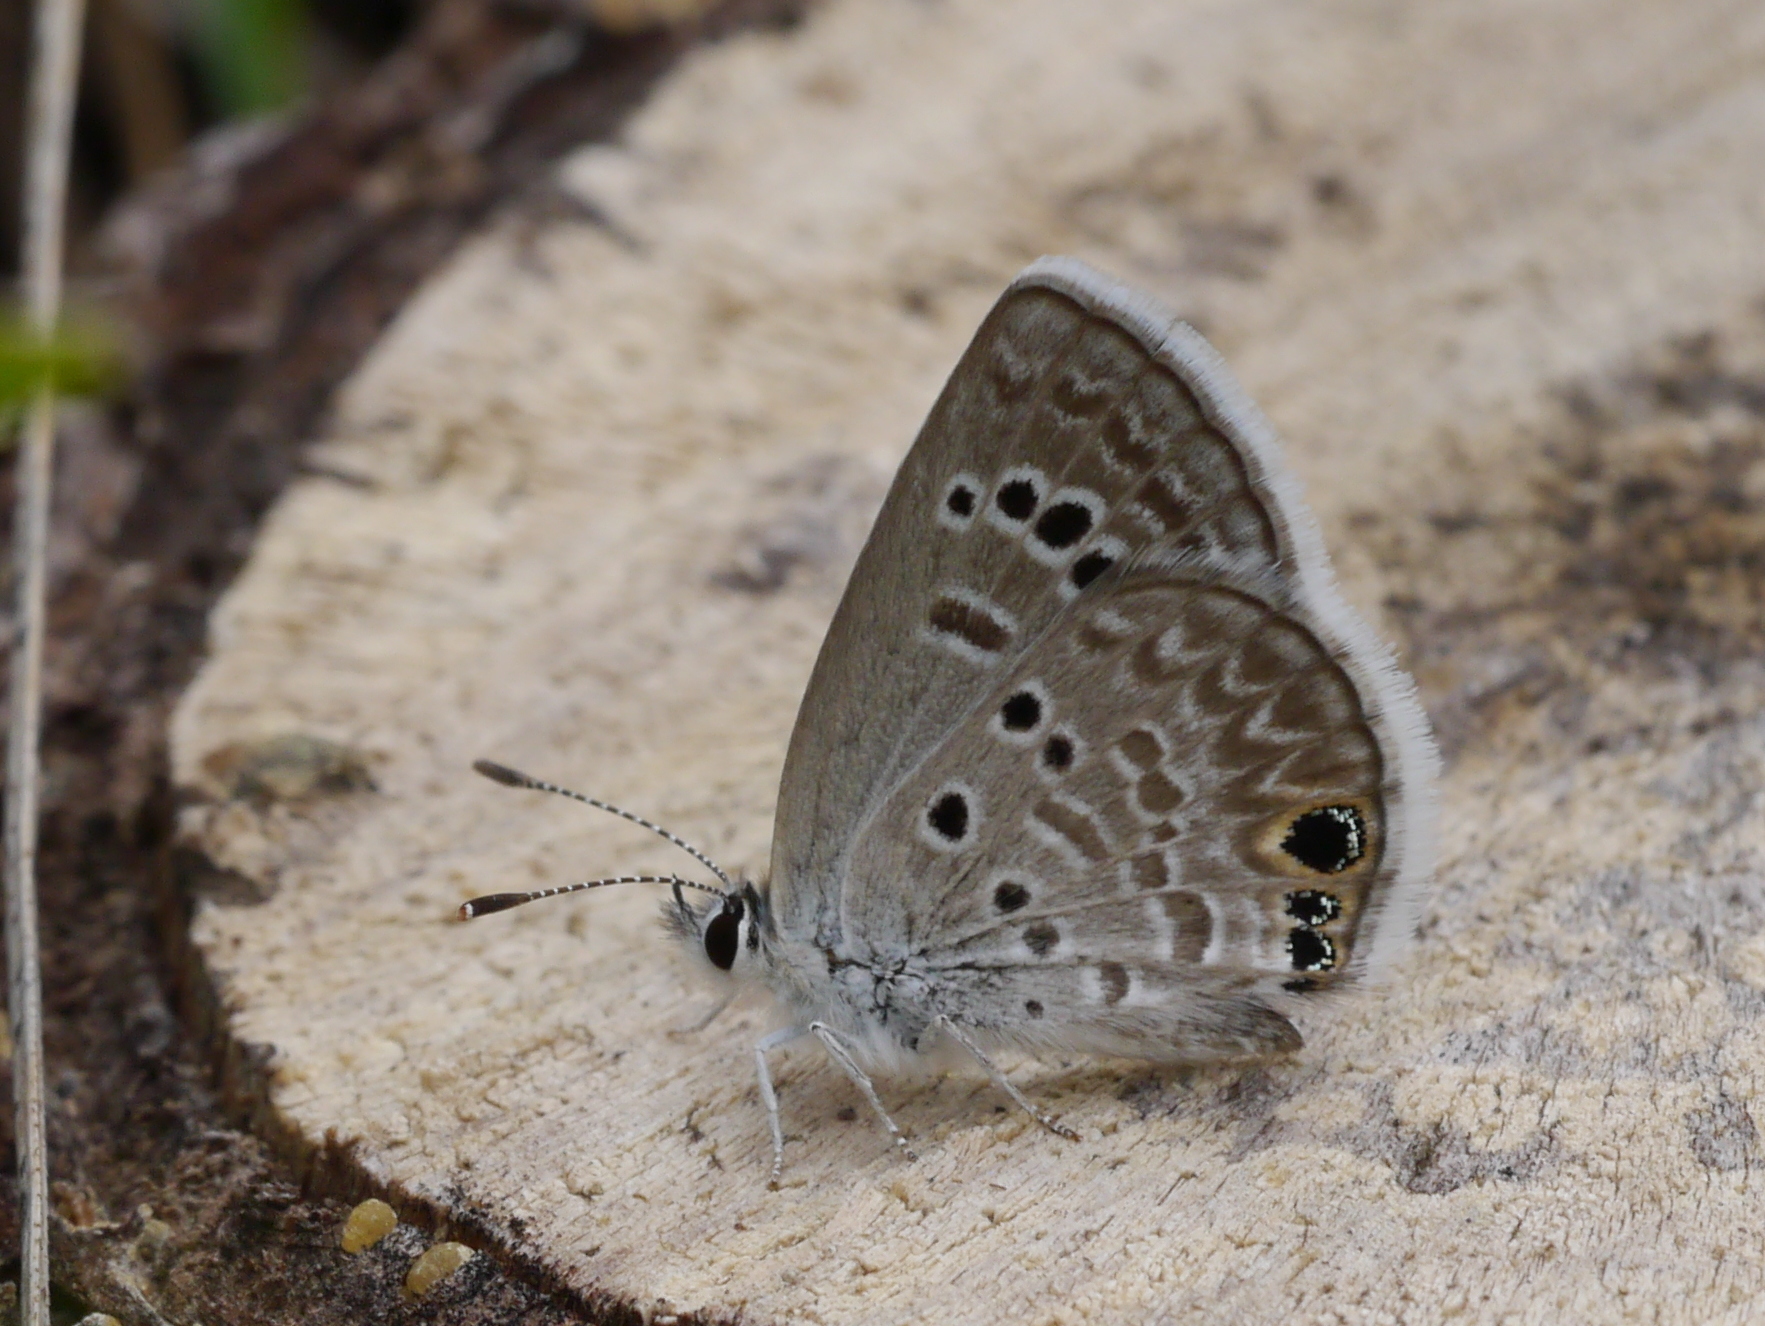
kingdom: Animalia
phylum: Arthropoda
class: Insecta
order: Lepidoptera
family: Lycaenidae
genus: Echinargus
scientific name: Echinargus isola
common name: Reakirt's blue
